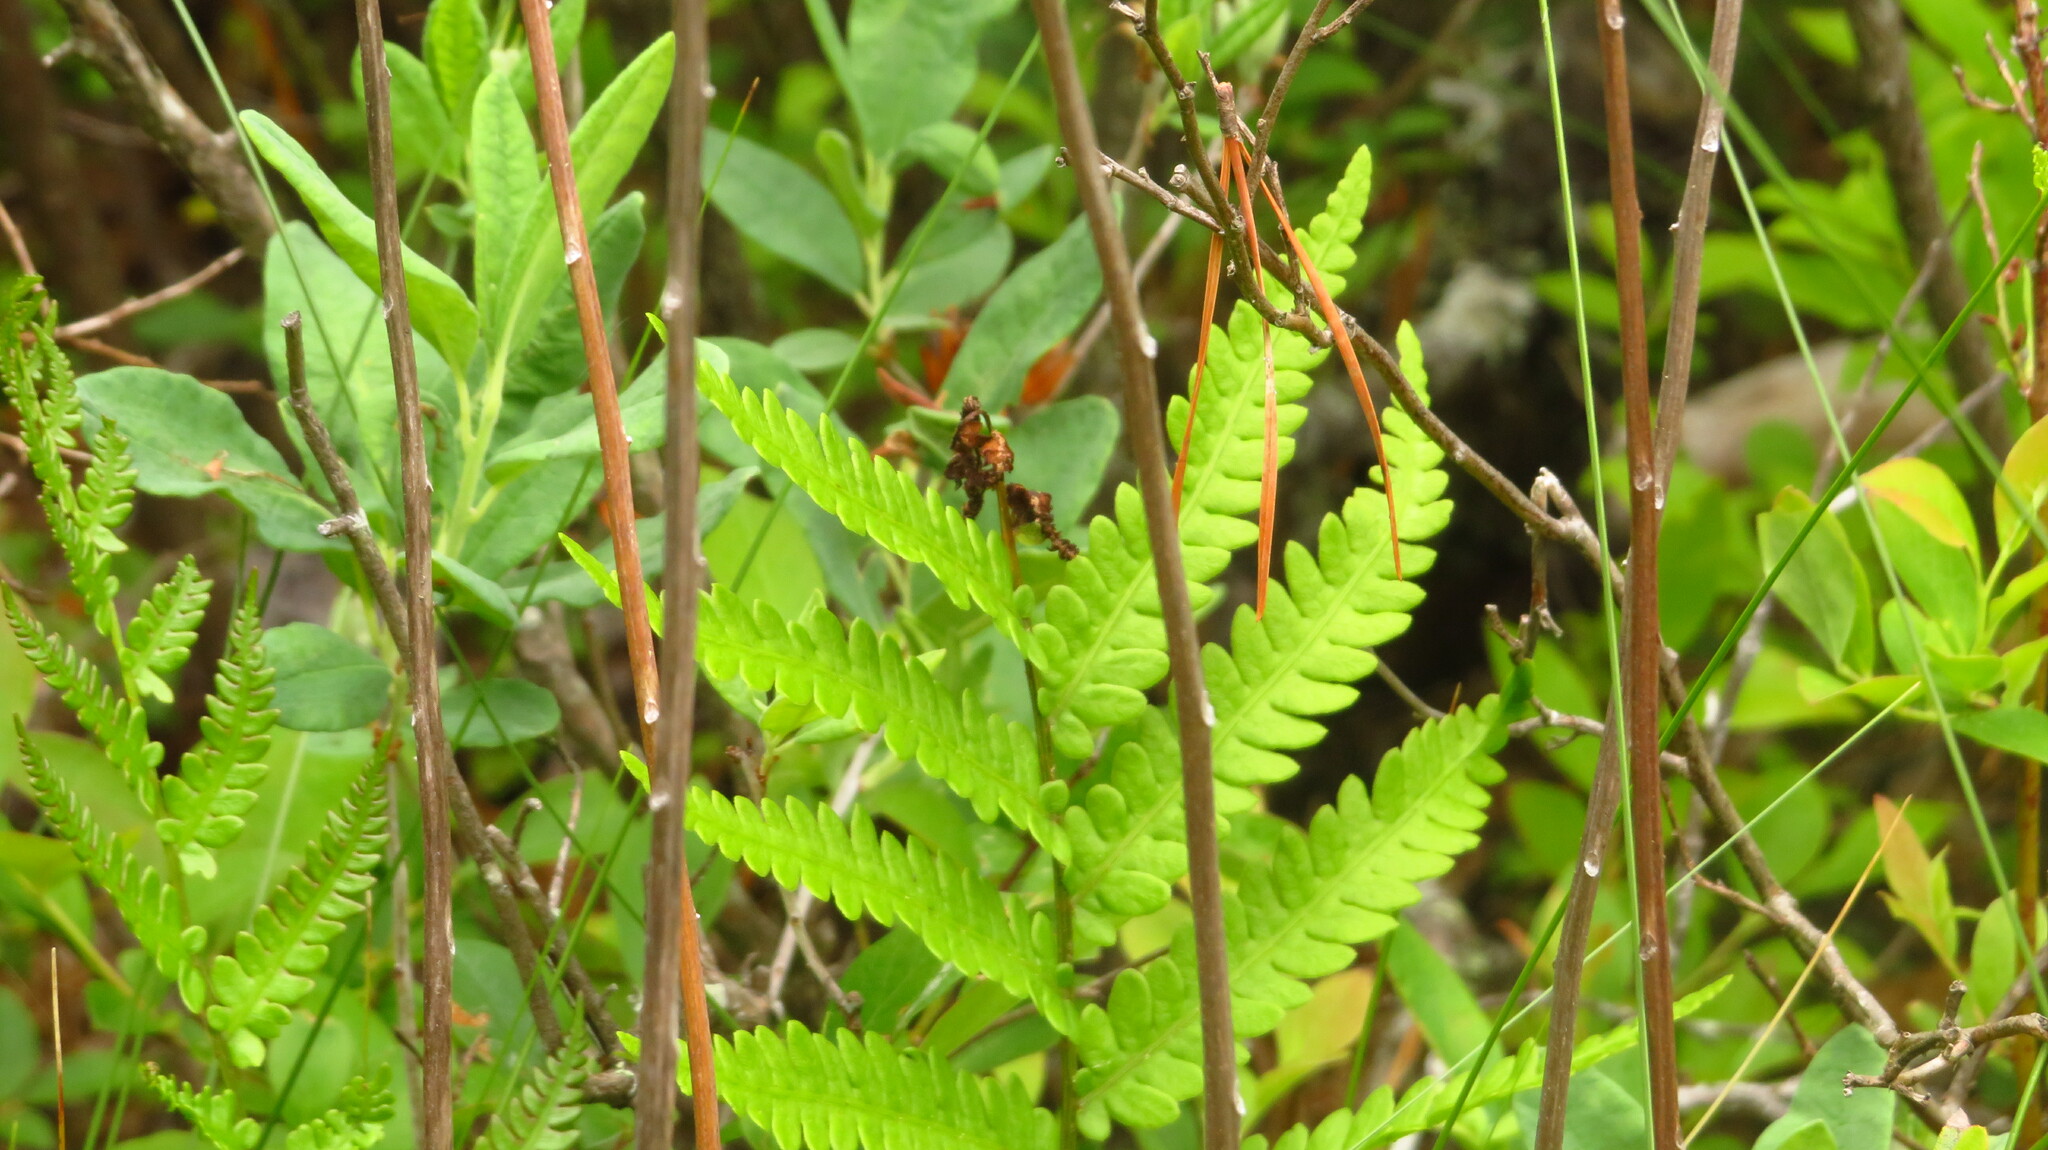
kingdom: Plantae
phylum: Tracheophyta
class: Polypodiopsida
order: Polypodiales
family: Blechnaceae
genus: Anchistea
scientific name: Anchistea virginica
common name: Virginia chain fern
